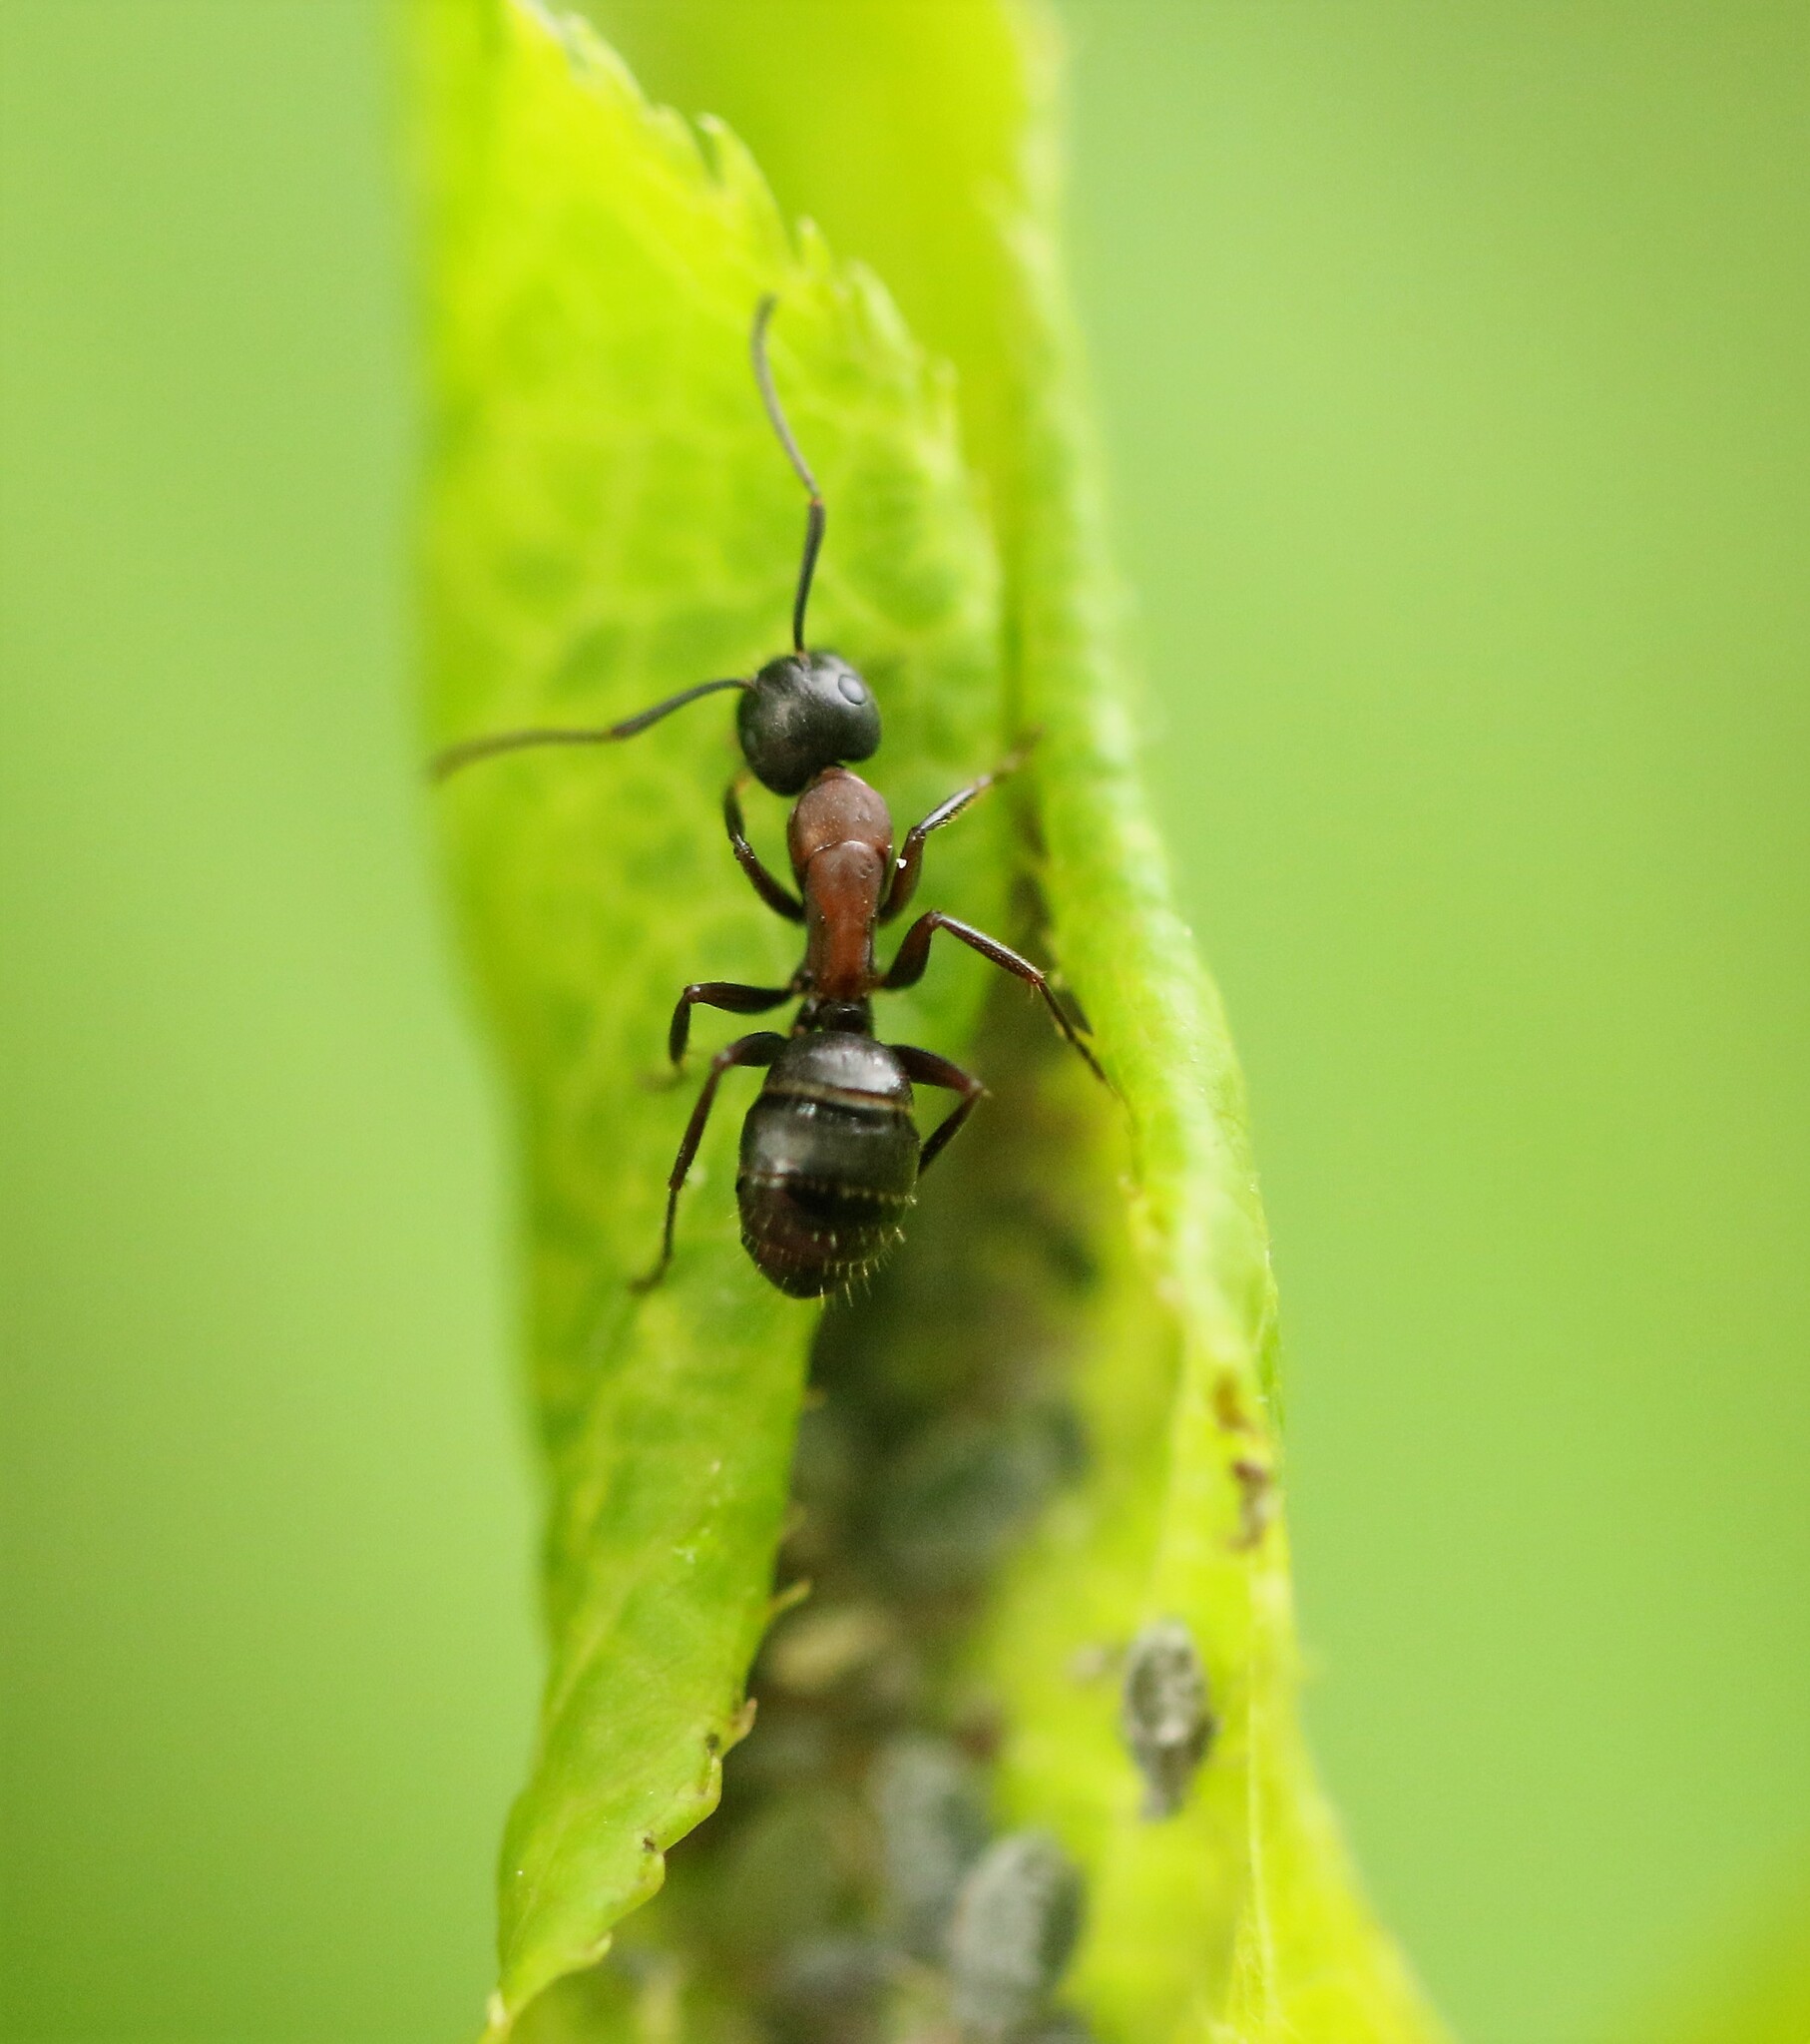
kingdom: Animalia
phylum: Arthropoda
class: Insecta
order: Hymenoptera
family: Formicidae
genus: Camponotus
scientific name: Camponotus novaeboracensis
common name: New york carpenter ant
